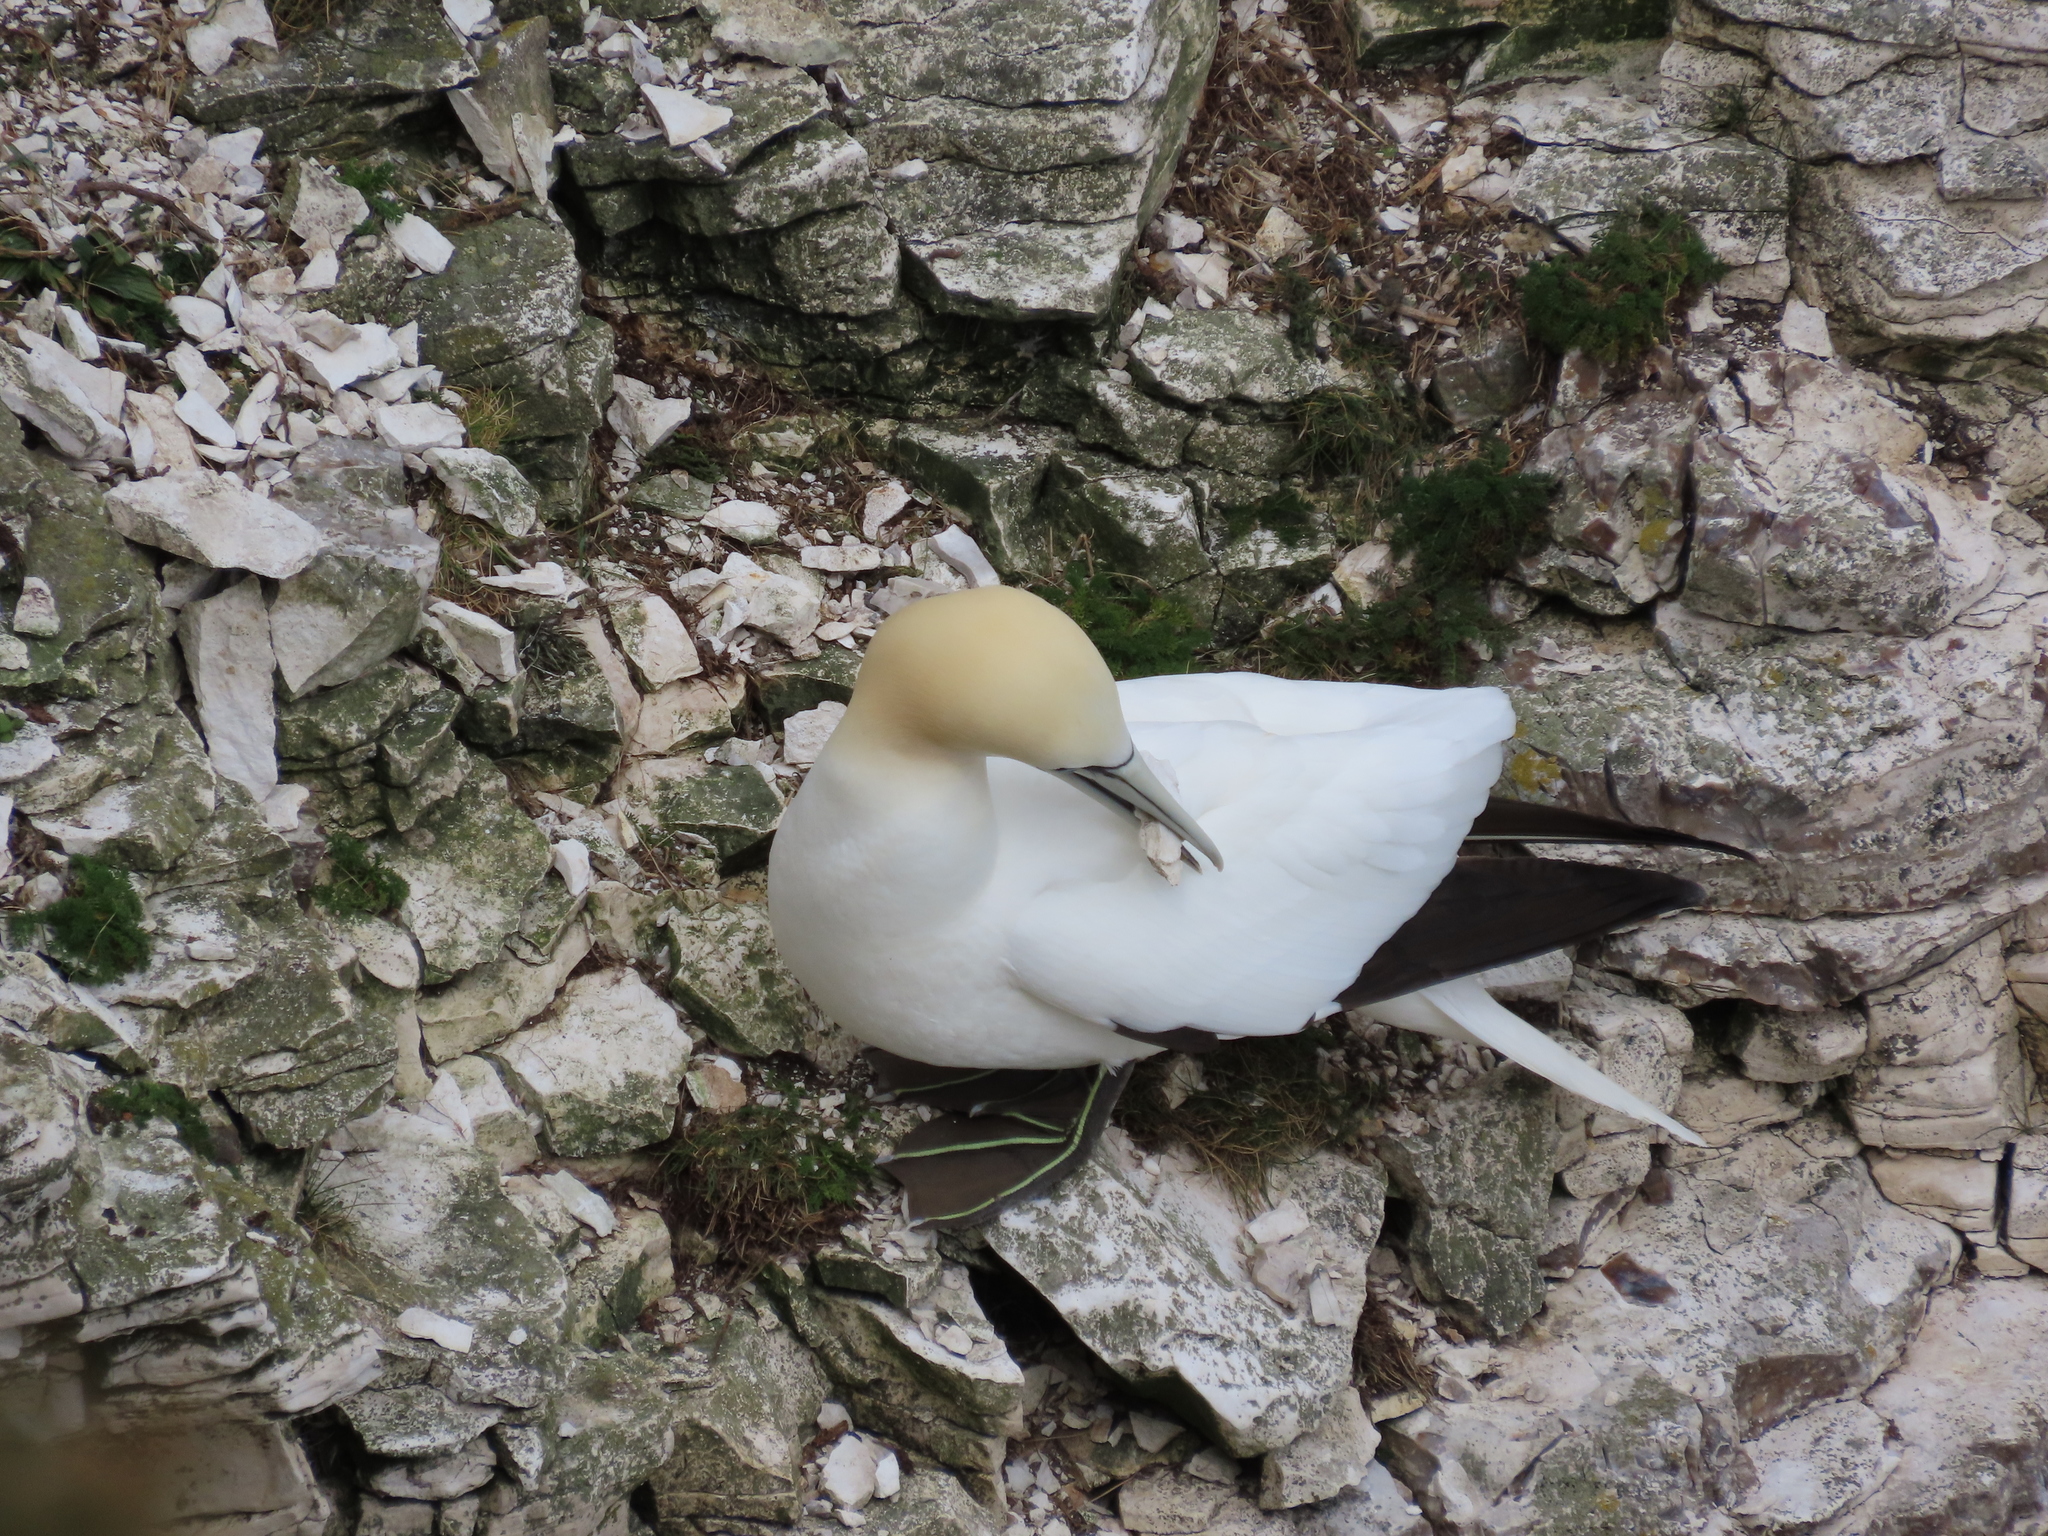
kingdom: Animalia
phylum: Chordata
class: Aves
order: Suliformes
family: Sulidae
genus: Morus
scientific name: Morus bassanus
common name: Northern gannet
